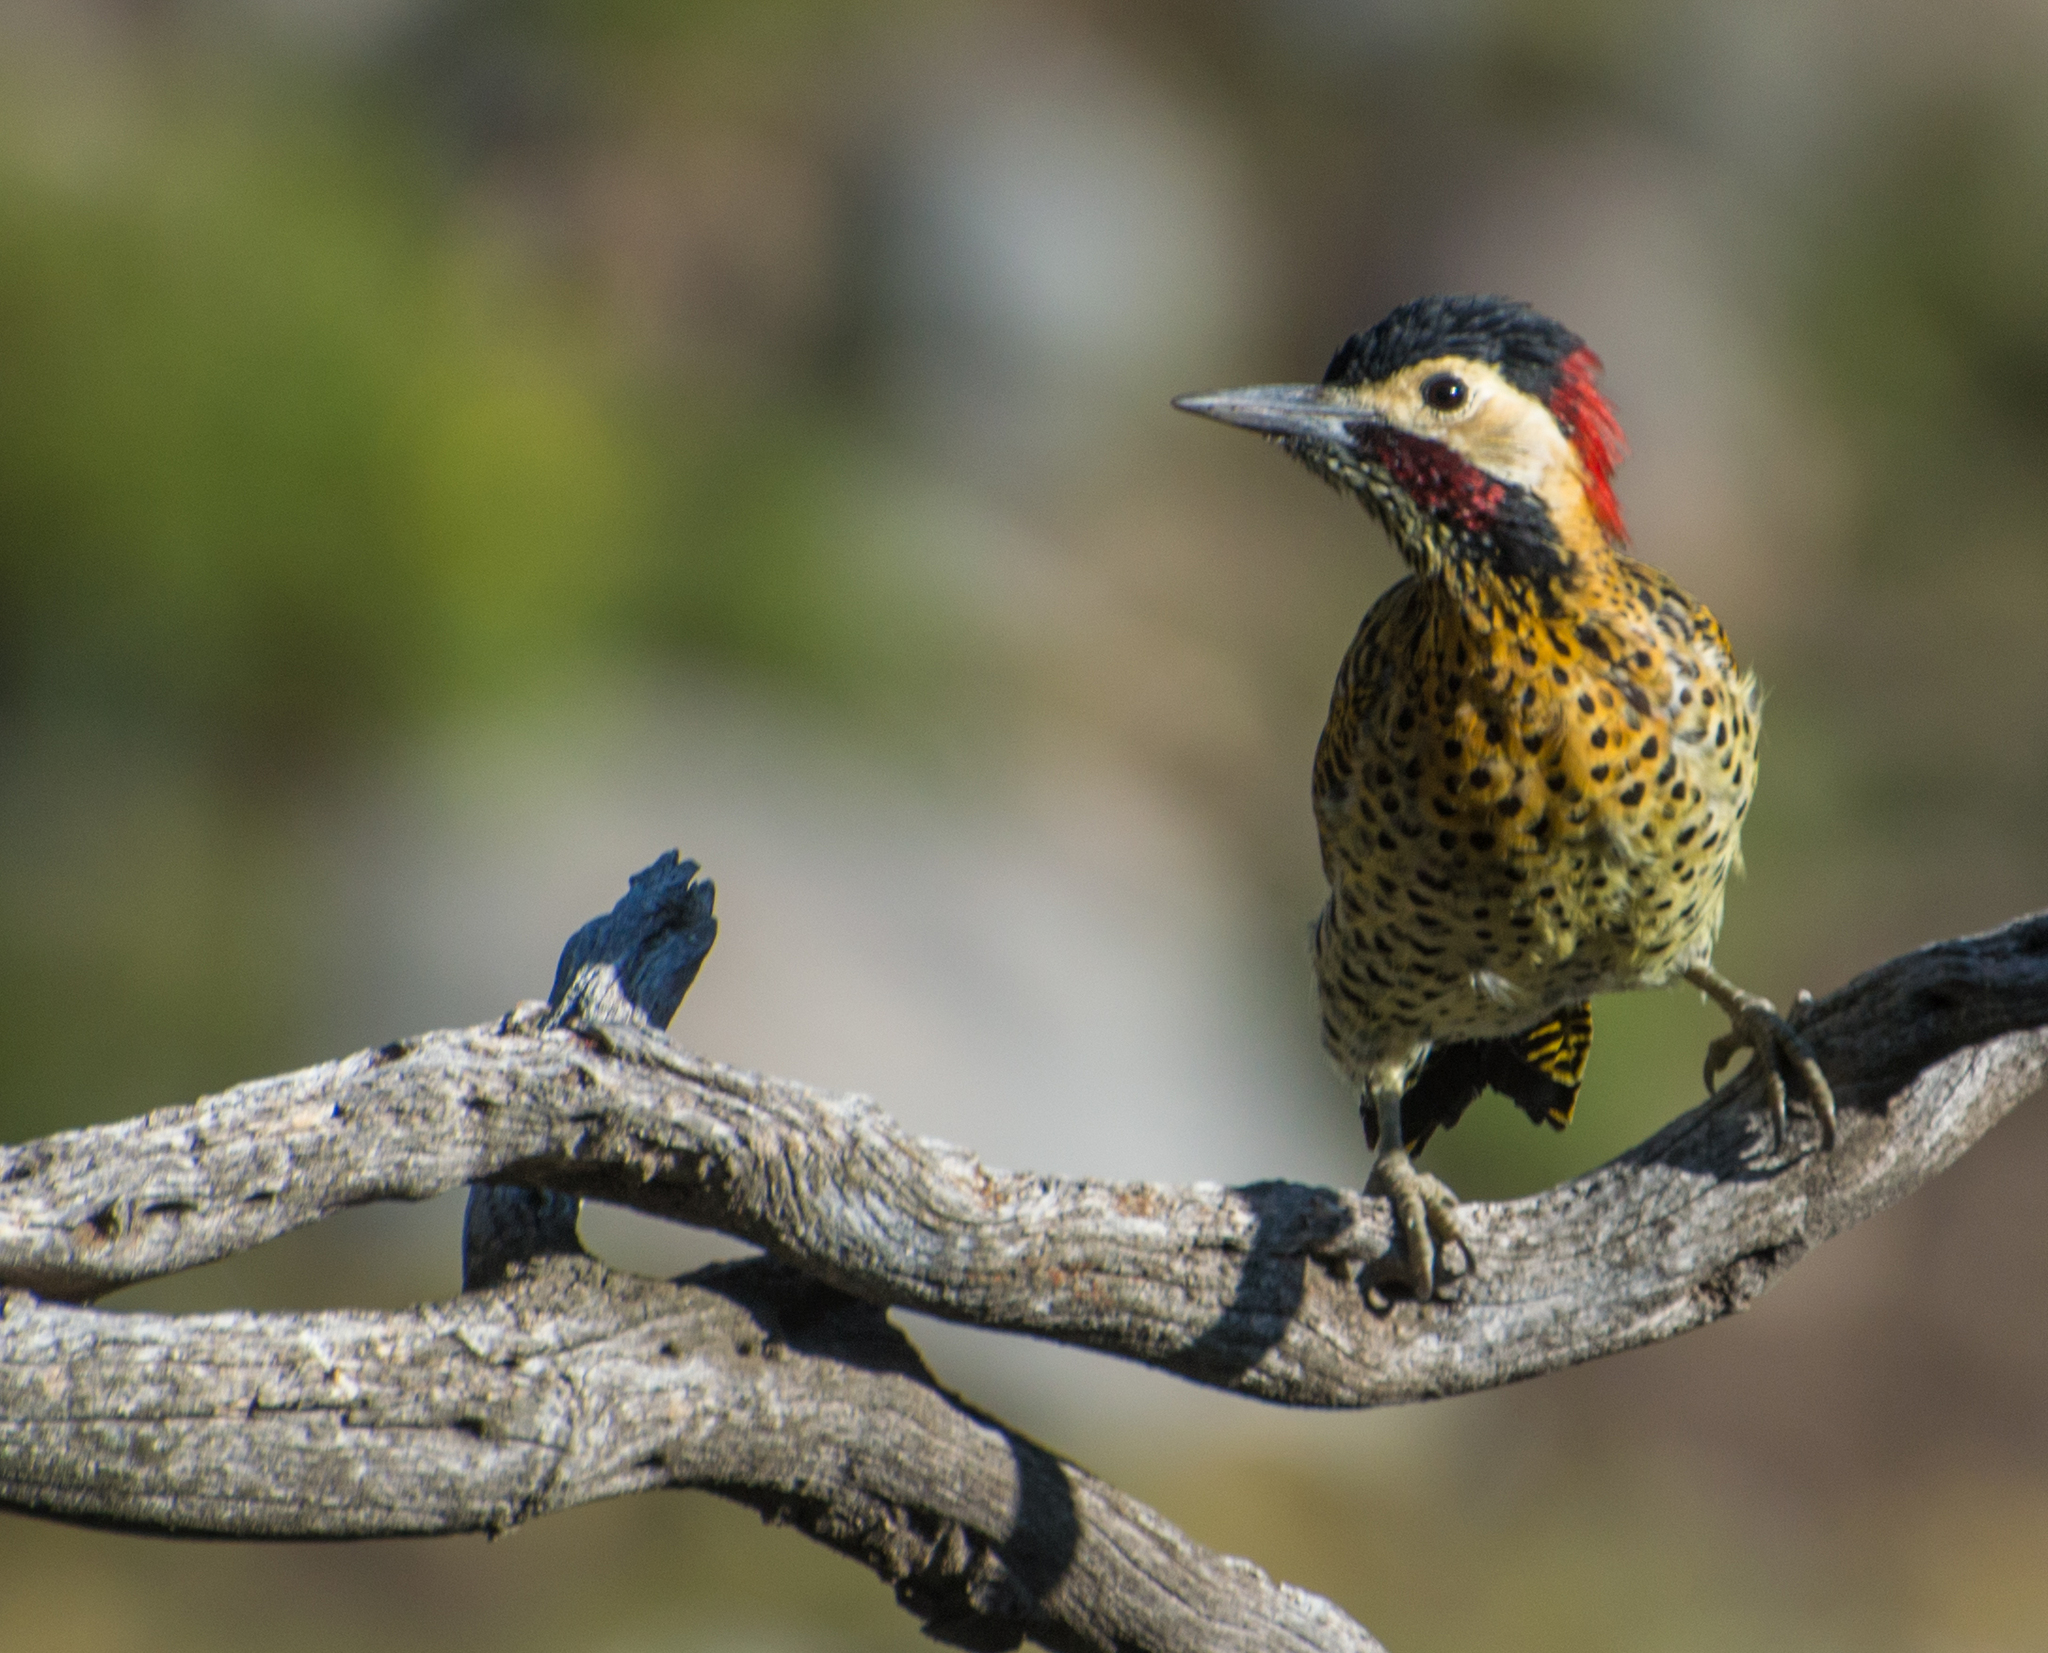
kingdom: Animalia
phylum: Chordata
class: Aves
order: Piciformes
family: Picidae
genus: Colaptes
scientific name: Colaptes melanochloros
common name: Green-barred woodpecker
